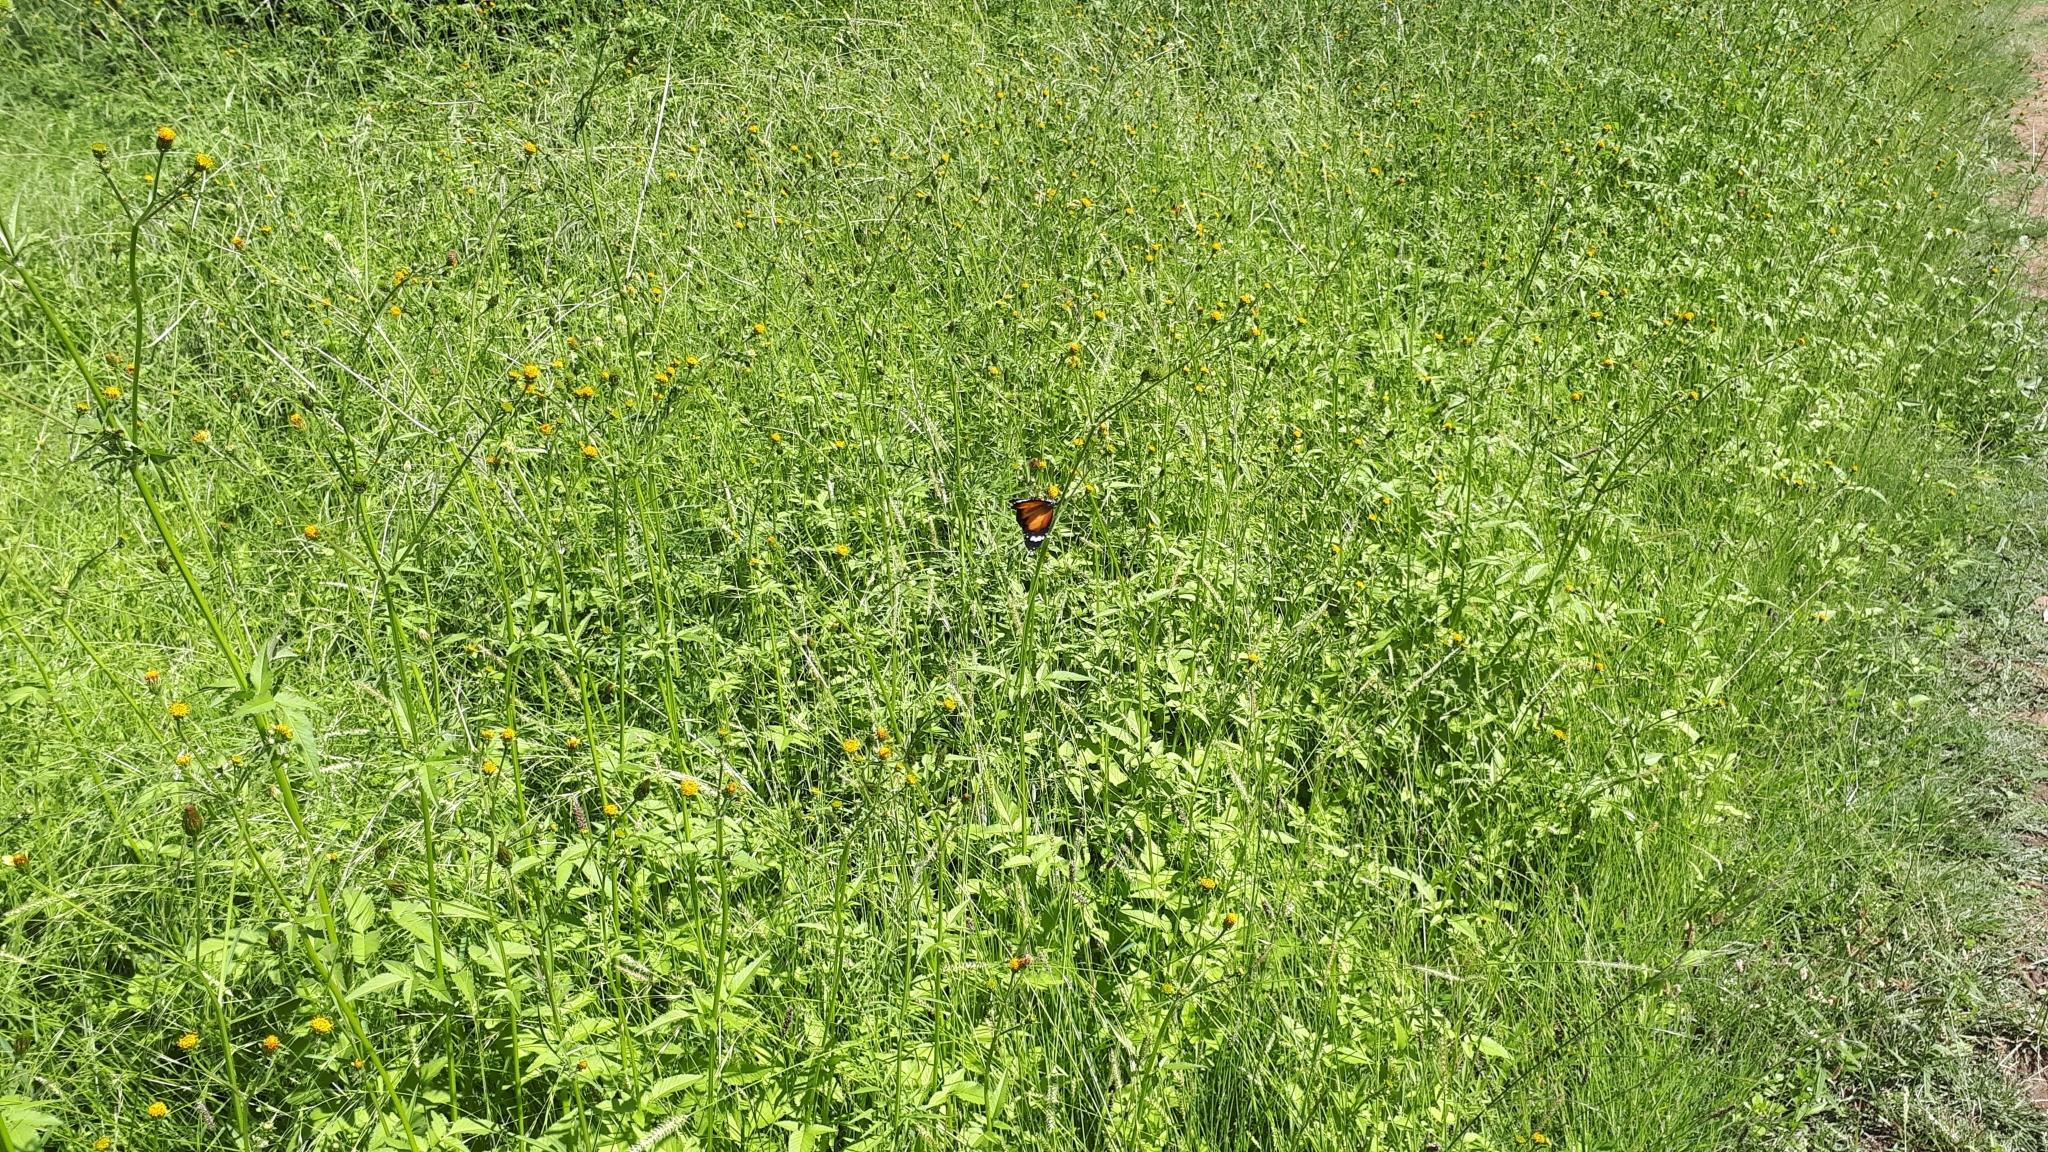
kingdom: Animalia
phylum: Arthropoda
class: Insecta
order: Lepidoptera
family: Nymphalidae
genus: Danaus
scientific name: Danaus chrysippus
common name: Plain tiger
